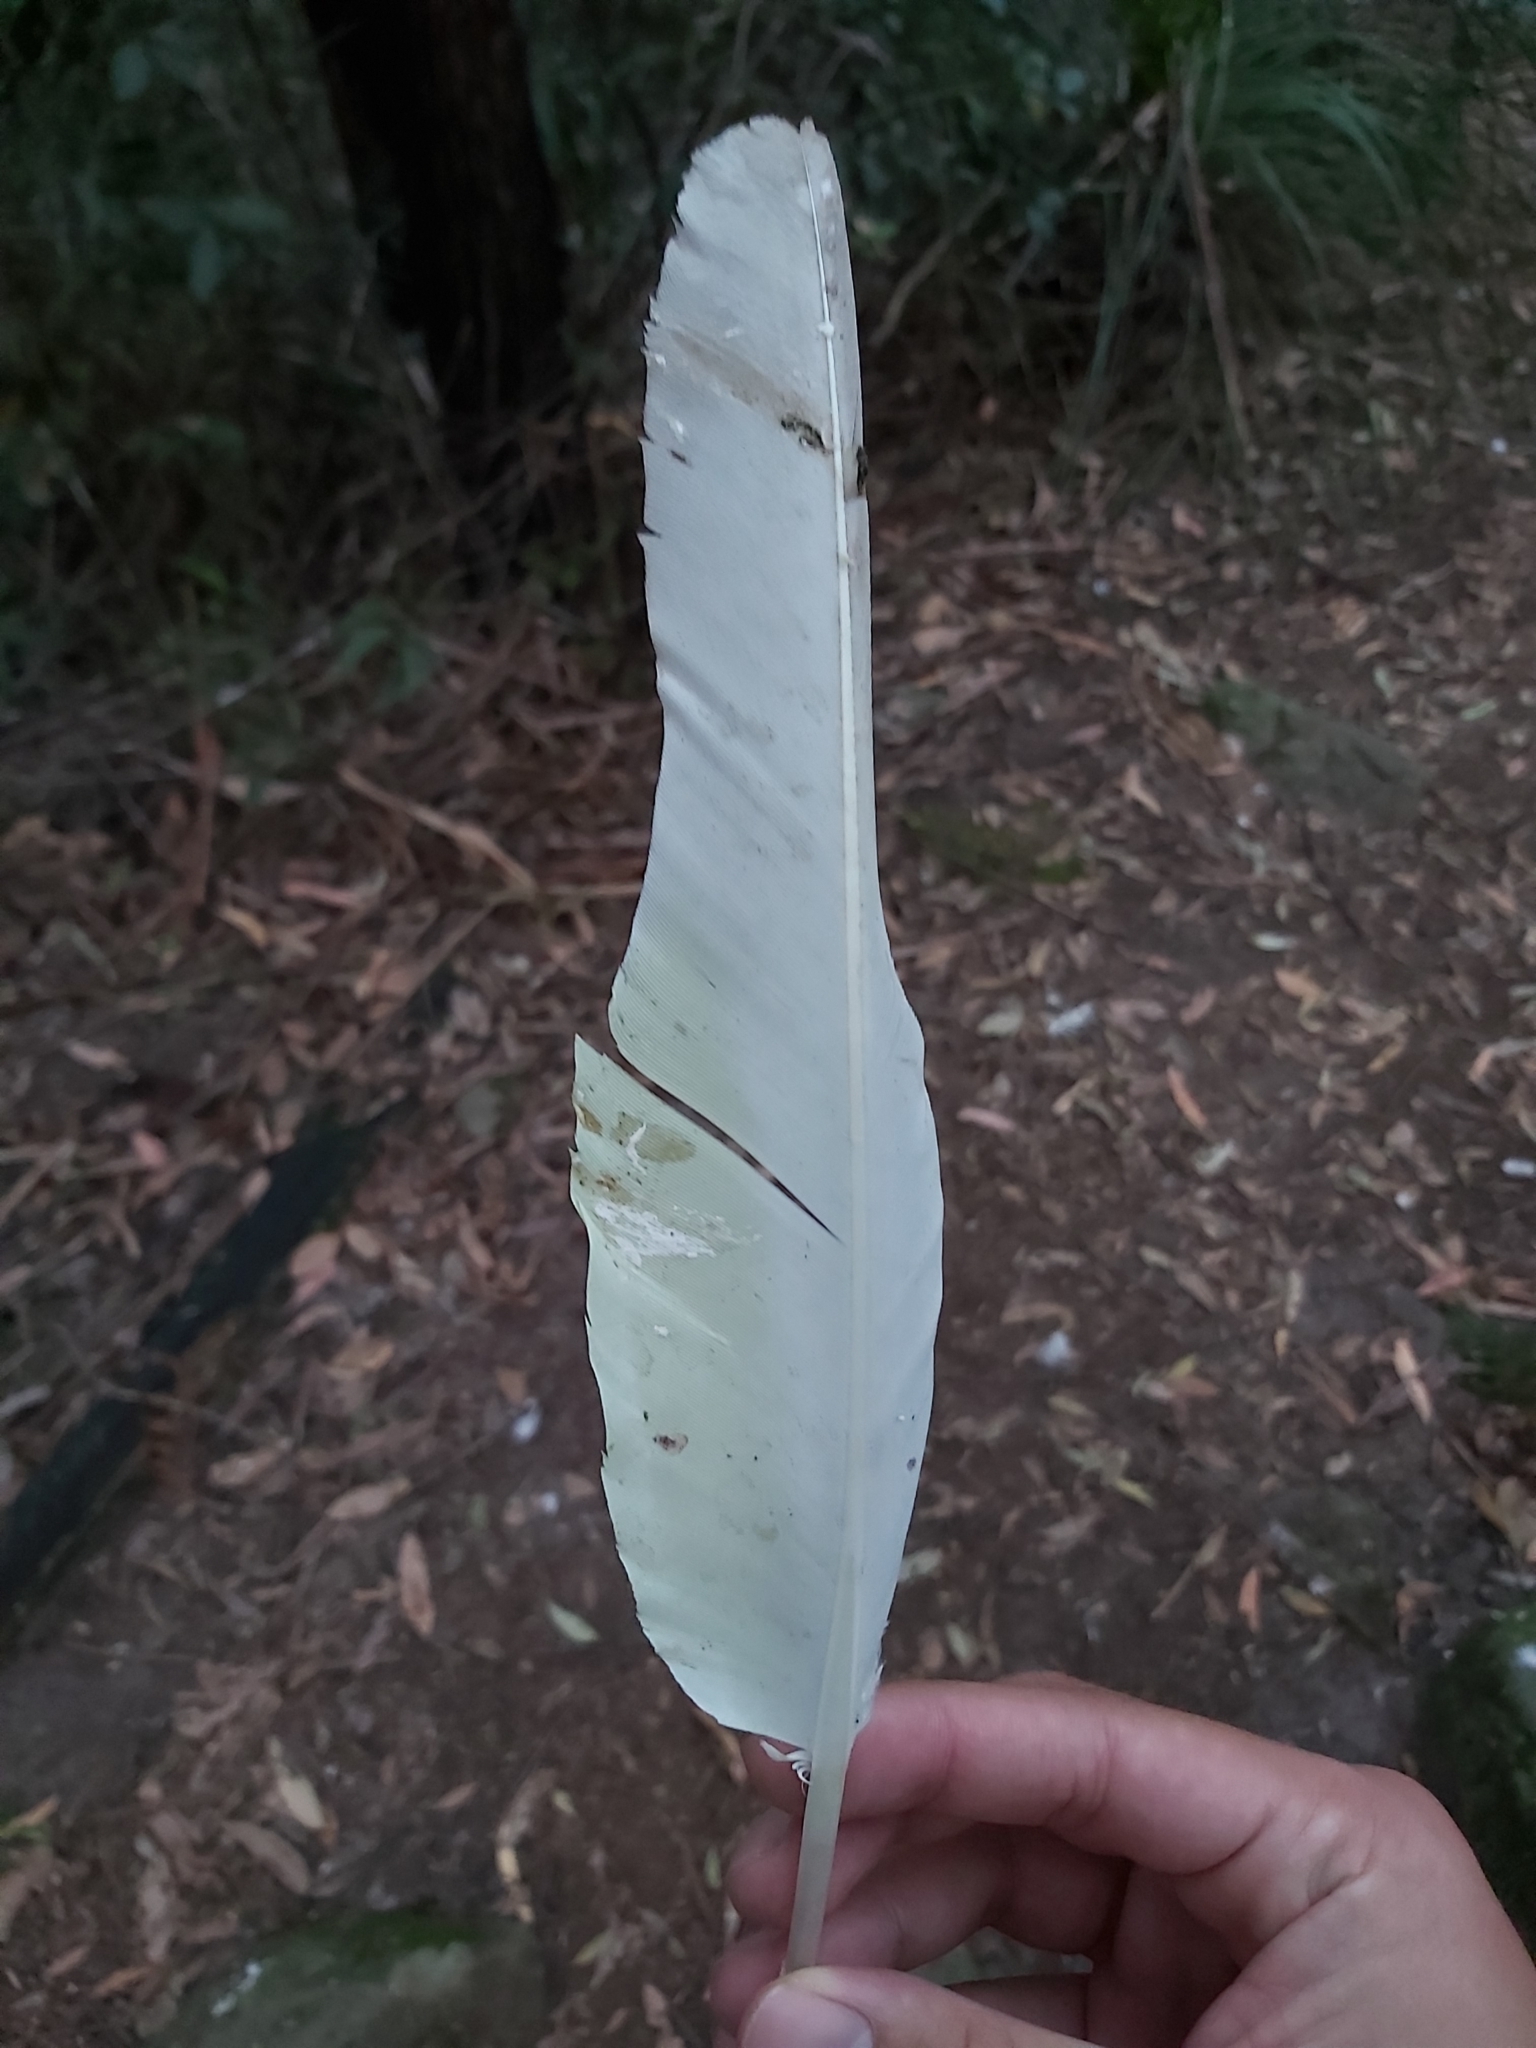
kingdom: Animalia
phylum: Chordata
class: Aves
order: Psittaciformes
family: Psittacidae
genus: Cacatua
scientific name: Cacatua galerita
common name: Sulphur-crested cockatoo
